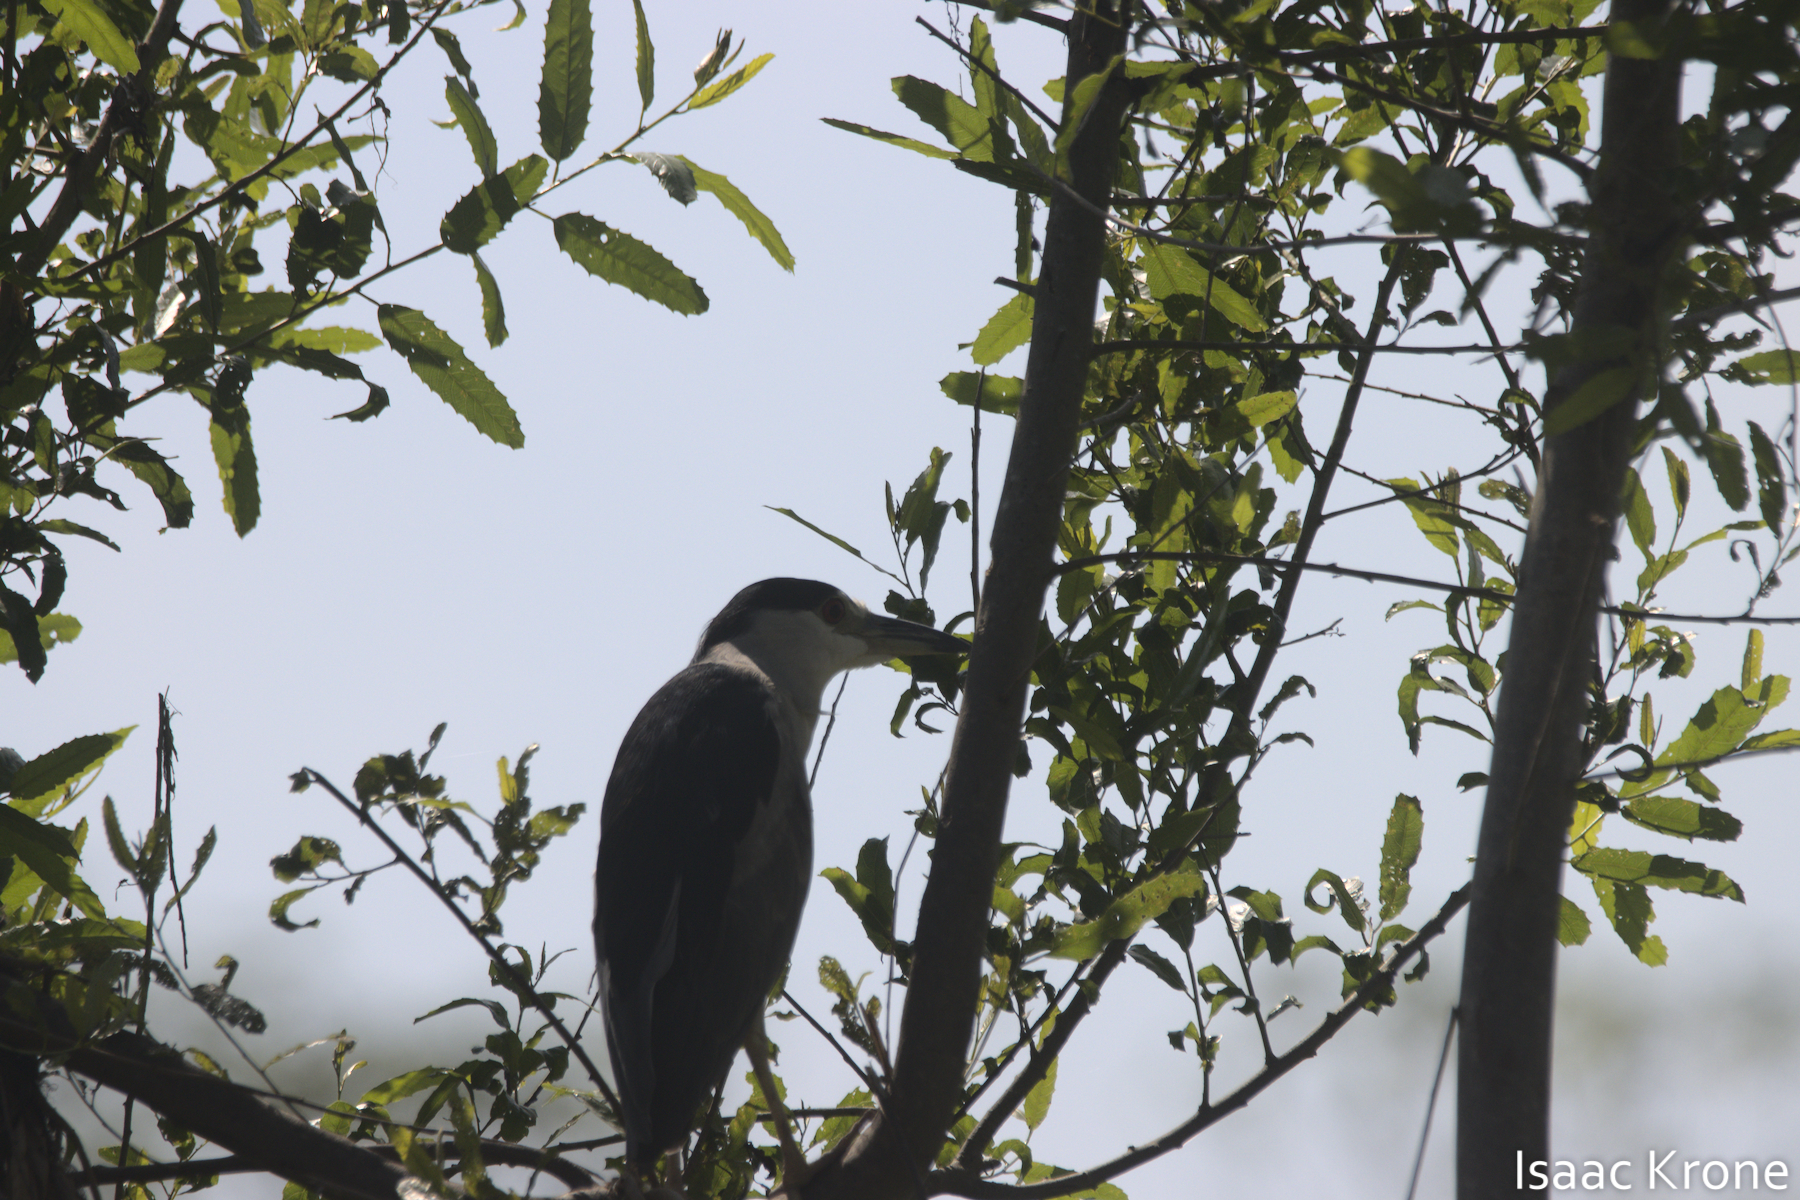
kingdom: Animalia
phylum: Chordata
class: Aves
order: Pelecaniformes
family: Ardeidae
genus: Nycticorax
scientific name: Nycticorax nycticorax
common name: Black-crowned night heron
